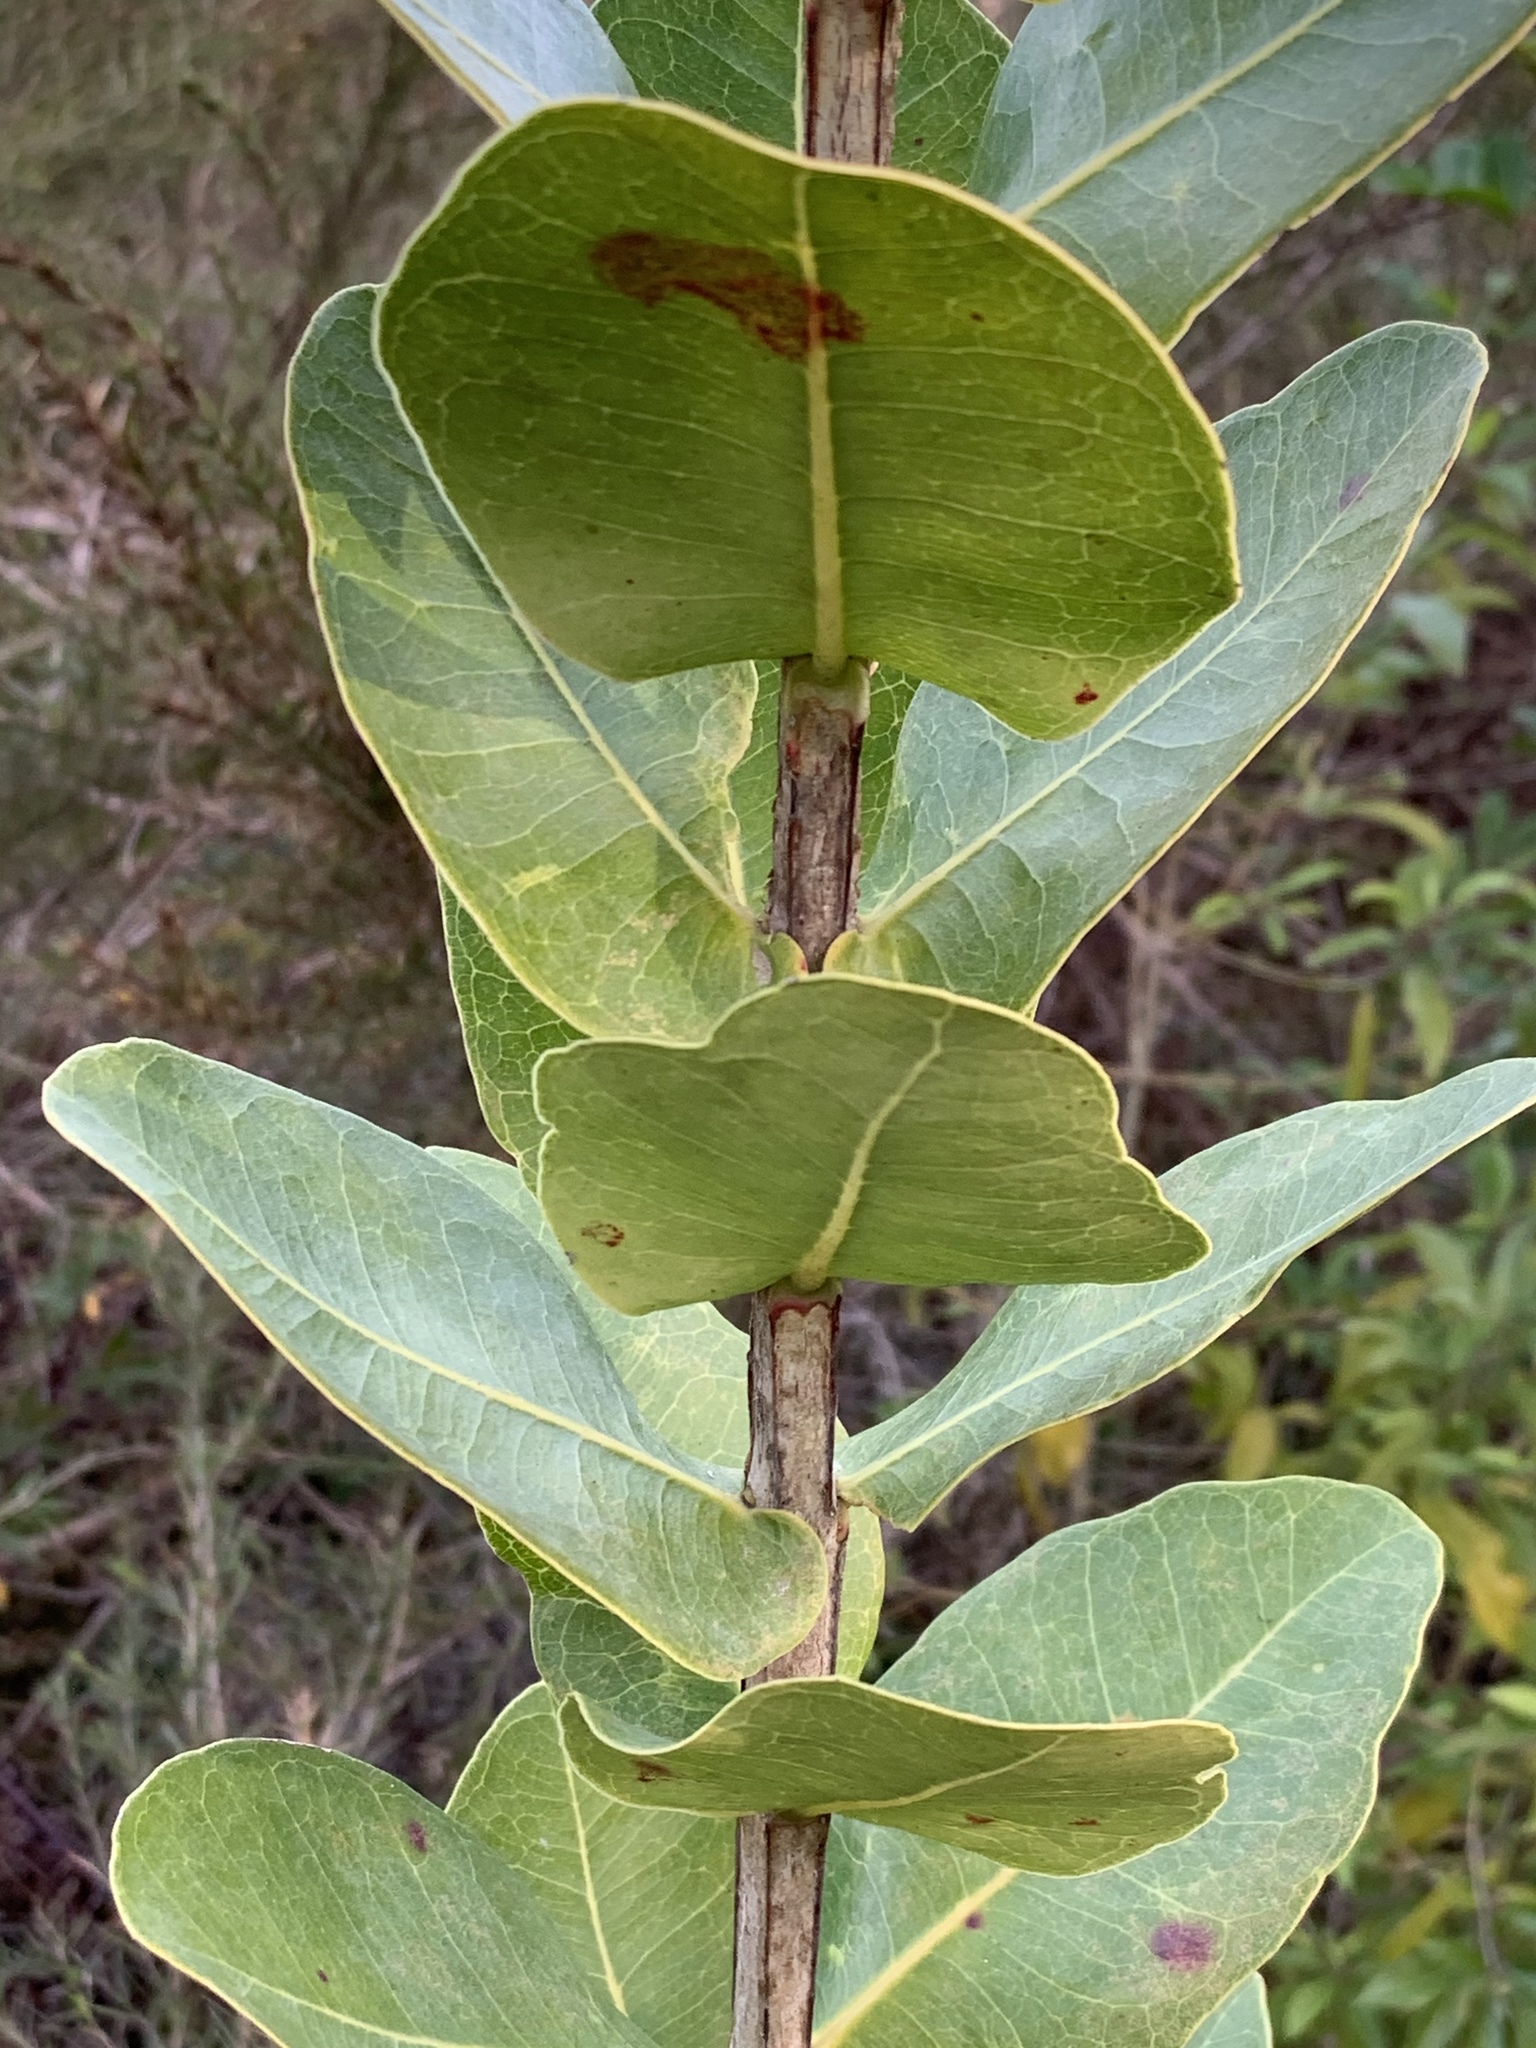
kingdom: Plantae
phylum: Tracheophyta
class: Magnoliopsida
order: Myrtales
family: Myrtaceae
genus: Syzygium
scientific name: Syzygium cordatum
